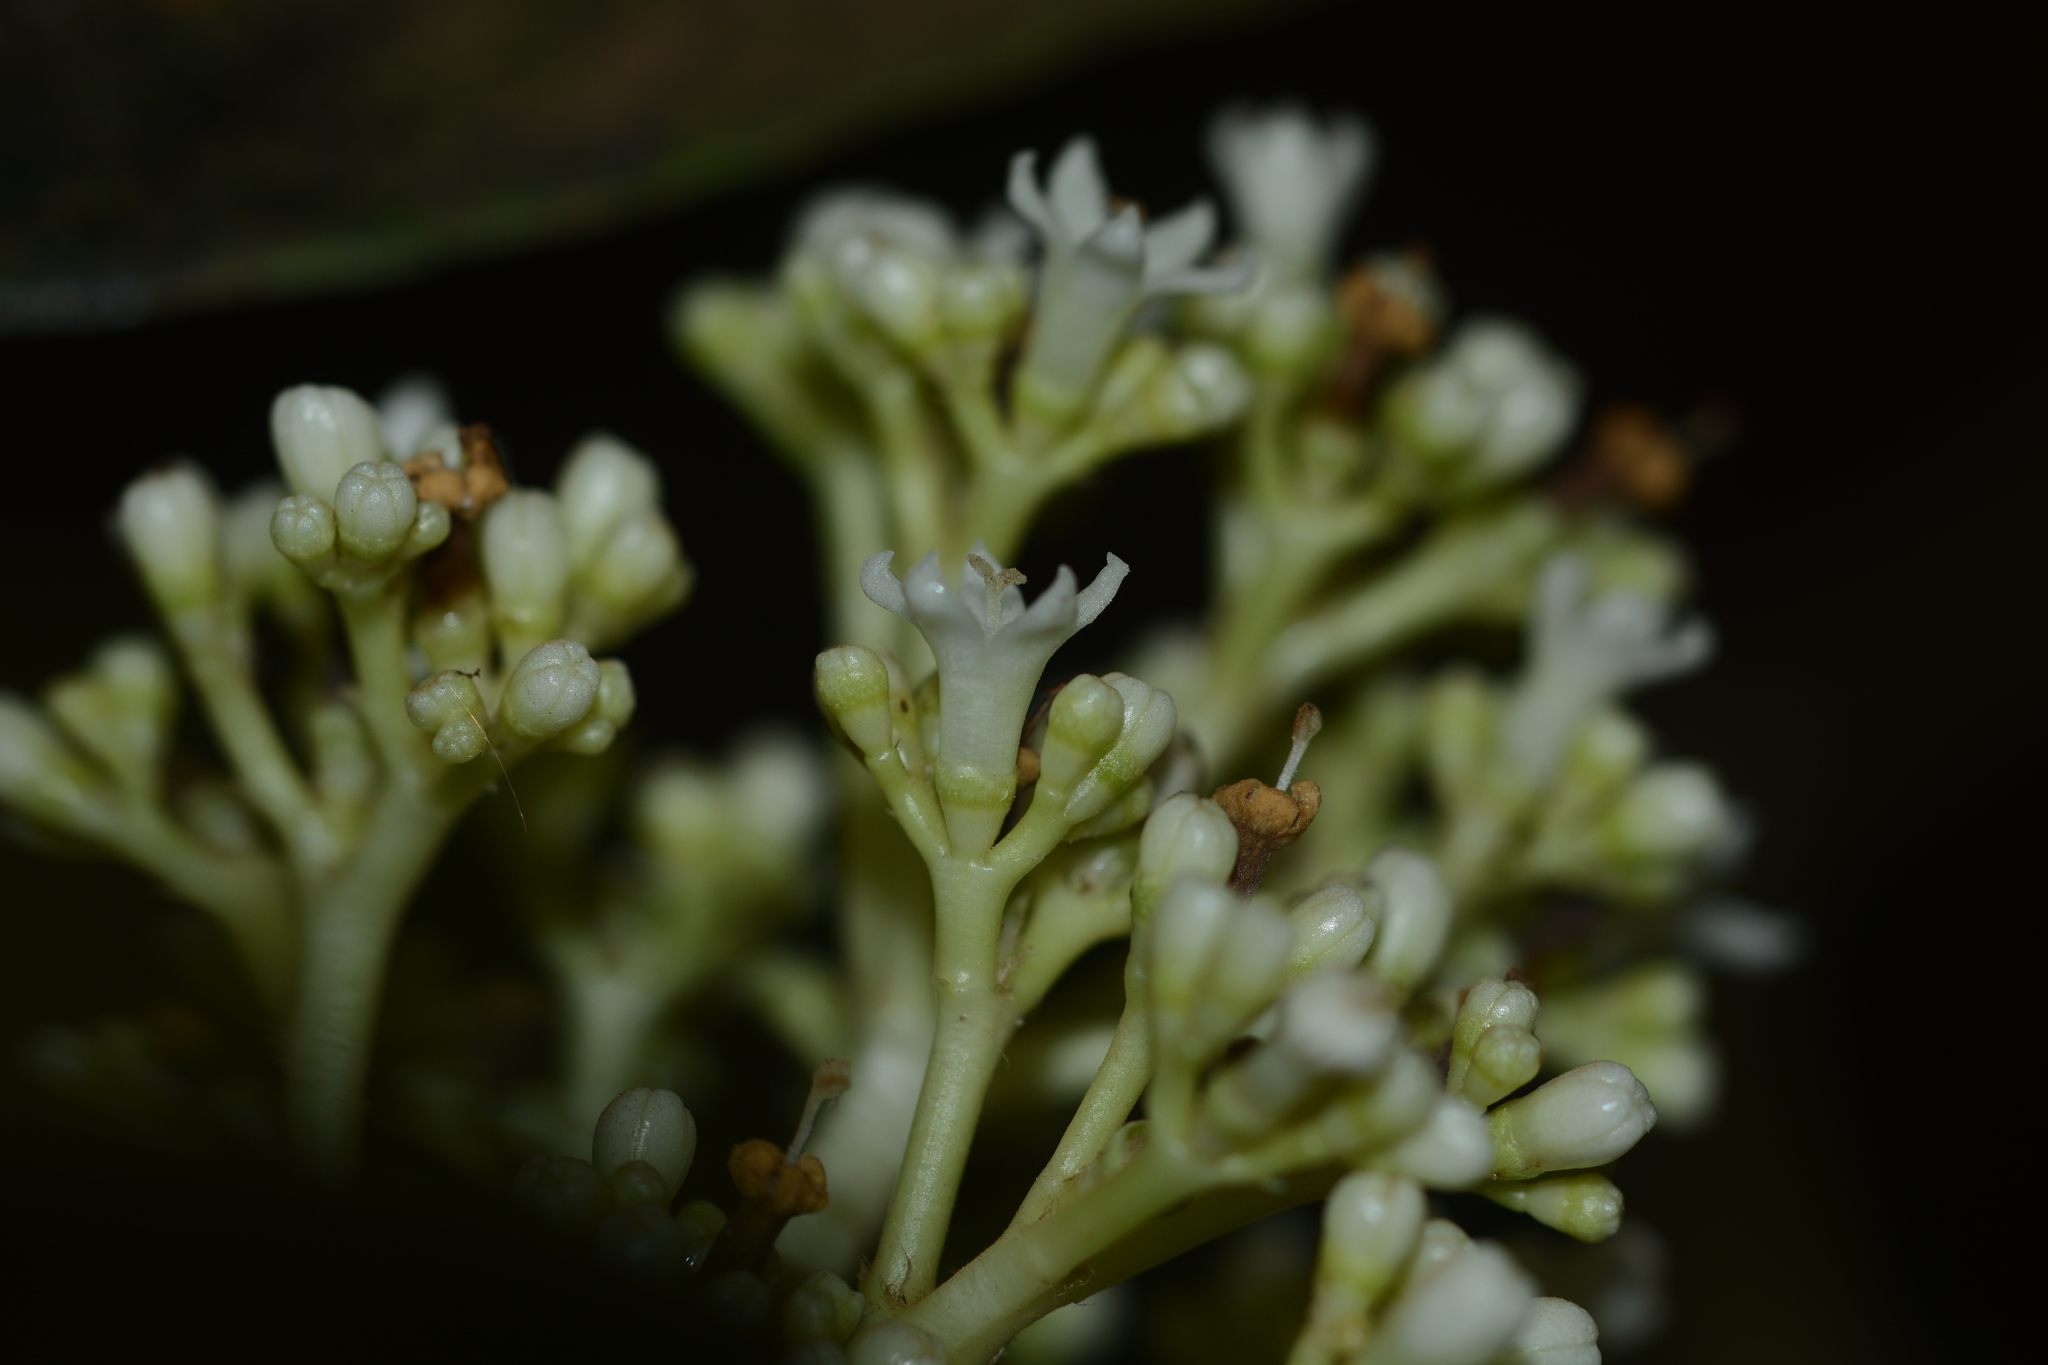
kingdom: Plantae
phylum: Tracheophyta
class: Magnoliopsida
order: Gentianales
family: Rubiaceae
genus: Psychotria
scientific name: Psychotria truncata
